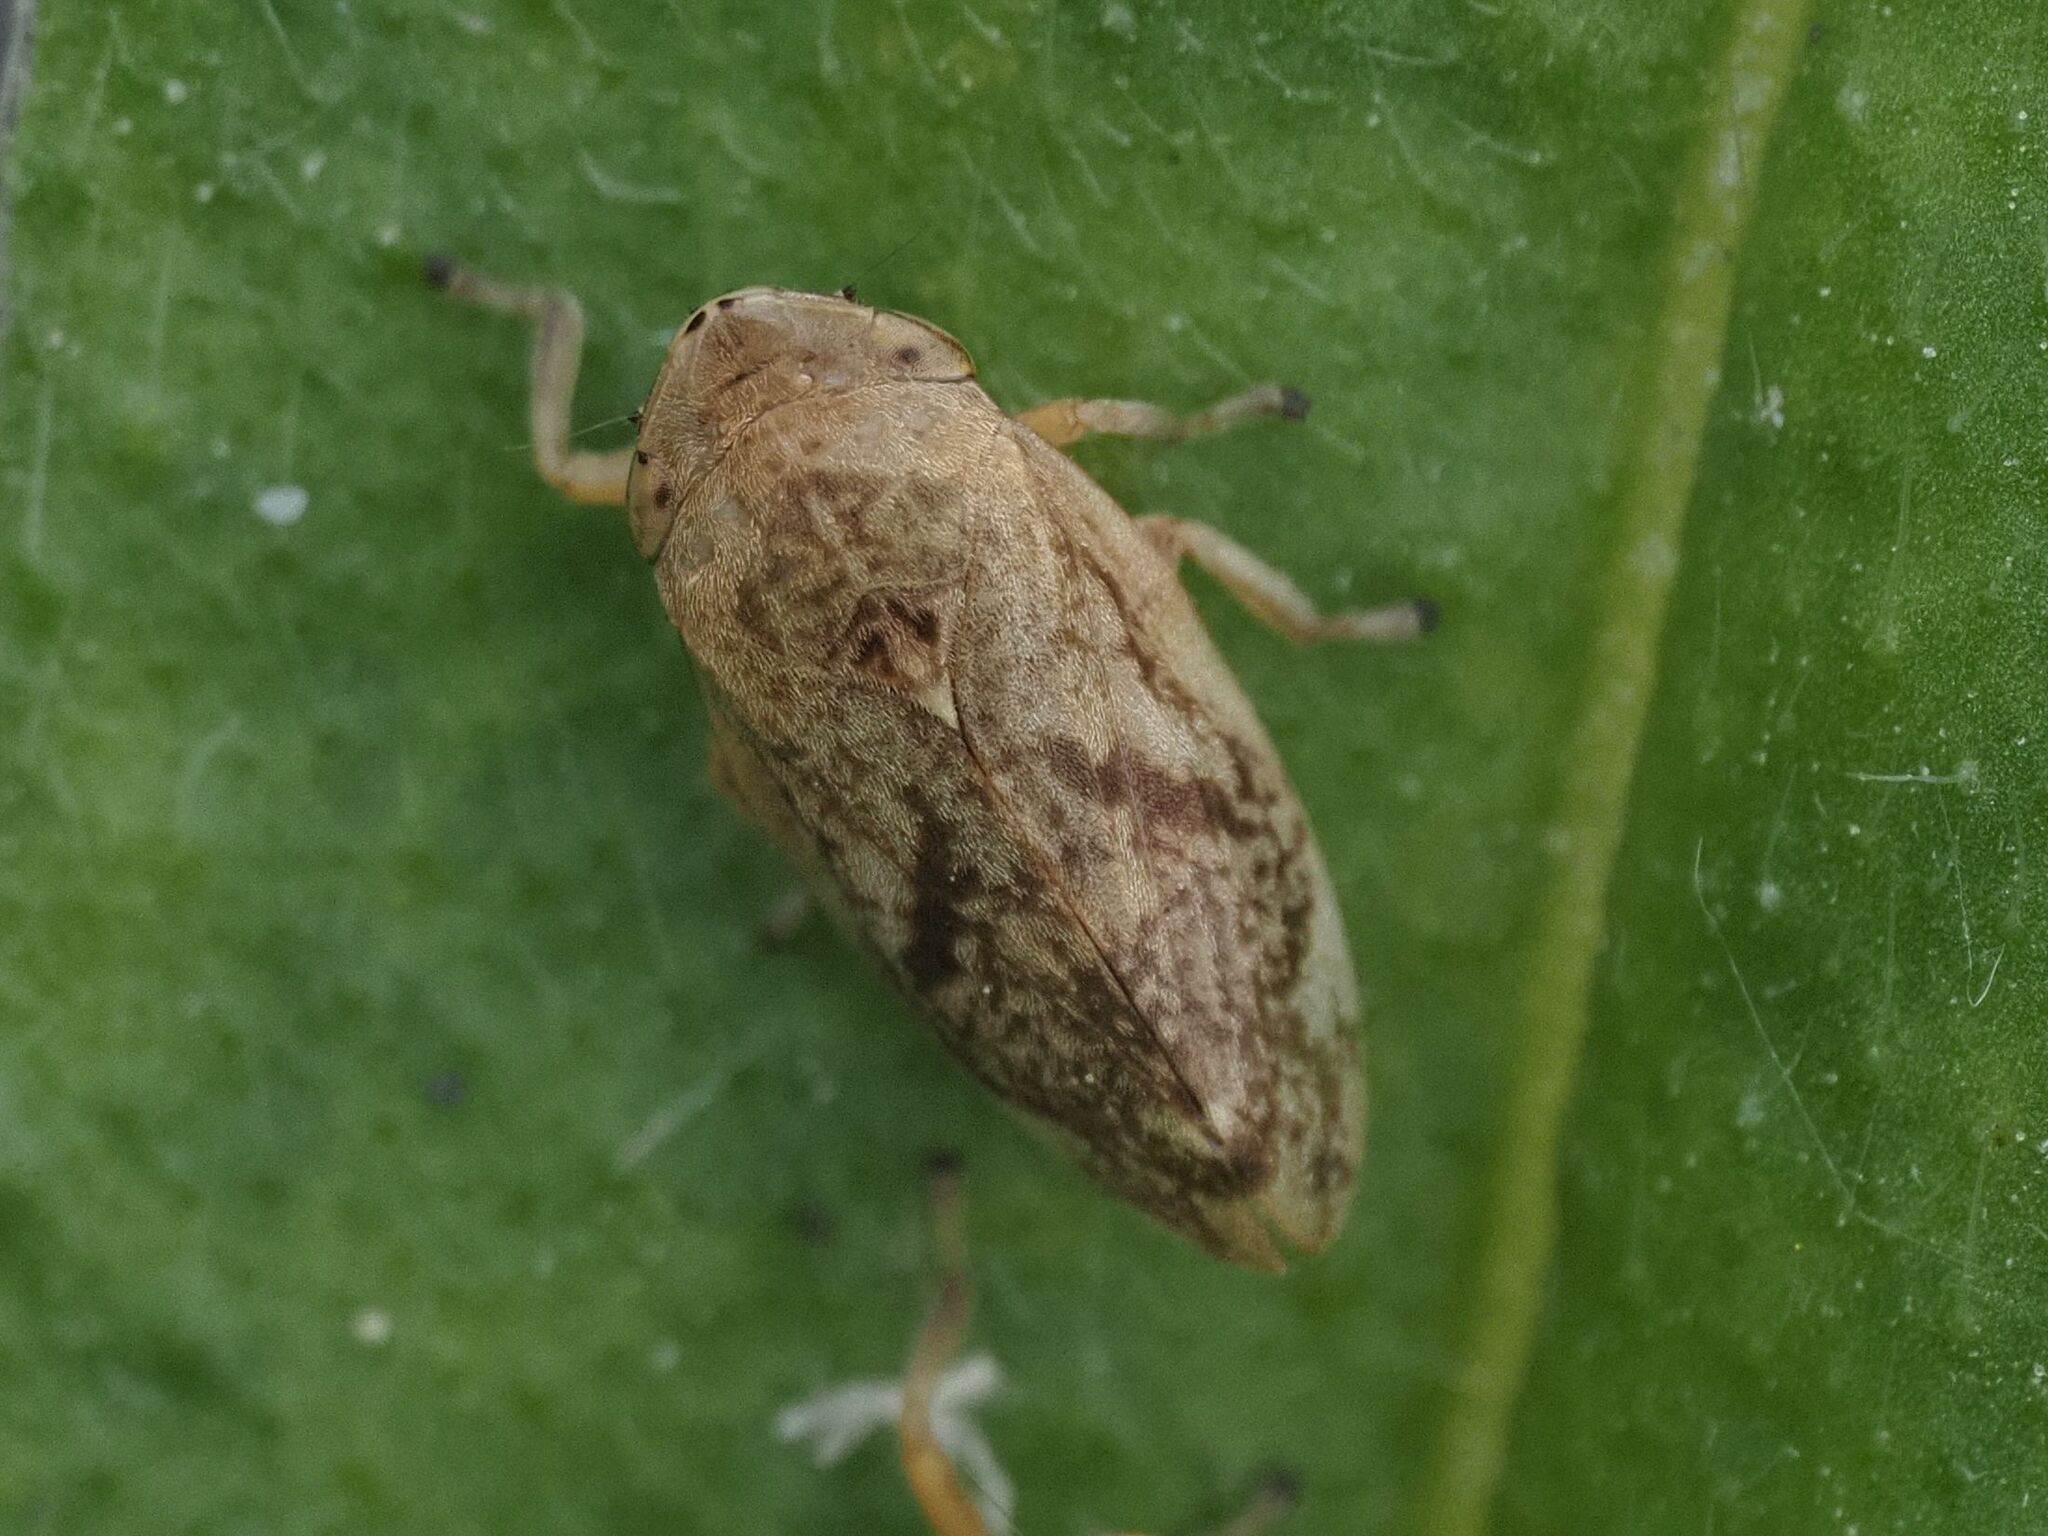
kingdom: Animalia
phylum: Arthropoda
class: Insecta
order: Hemiptera
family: Aphrophoridae
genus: Philaenus
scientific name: Philaenus spumarius
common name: Meadow spittlebug
